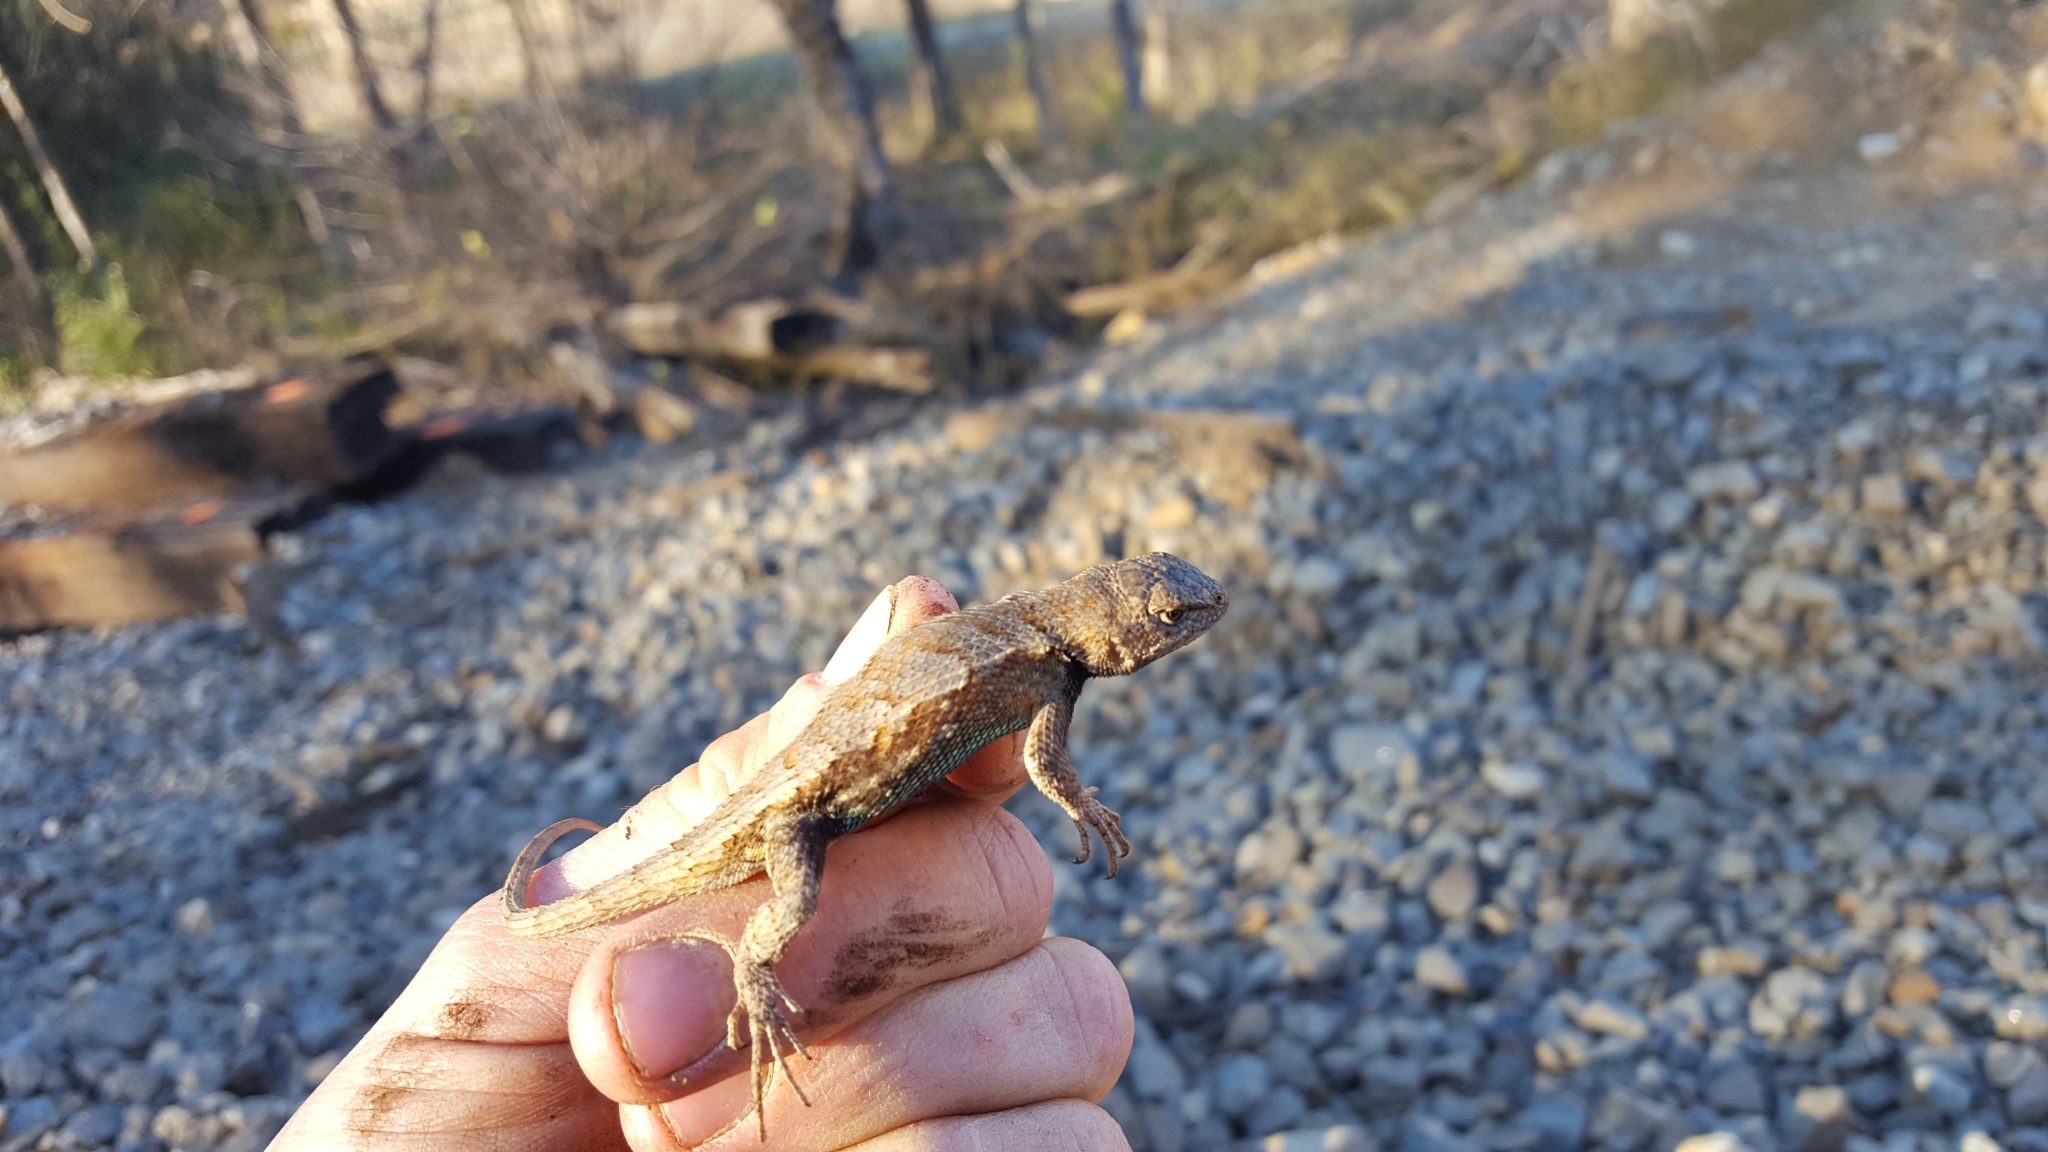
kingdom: Animalia
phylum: Chordata
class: Squamata
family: Phrynosomatidae
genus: Sceloporus
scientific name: Sceloporus consobrinus
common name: Southern prairie lizard
